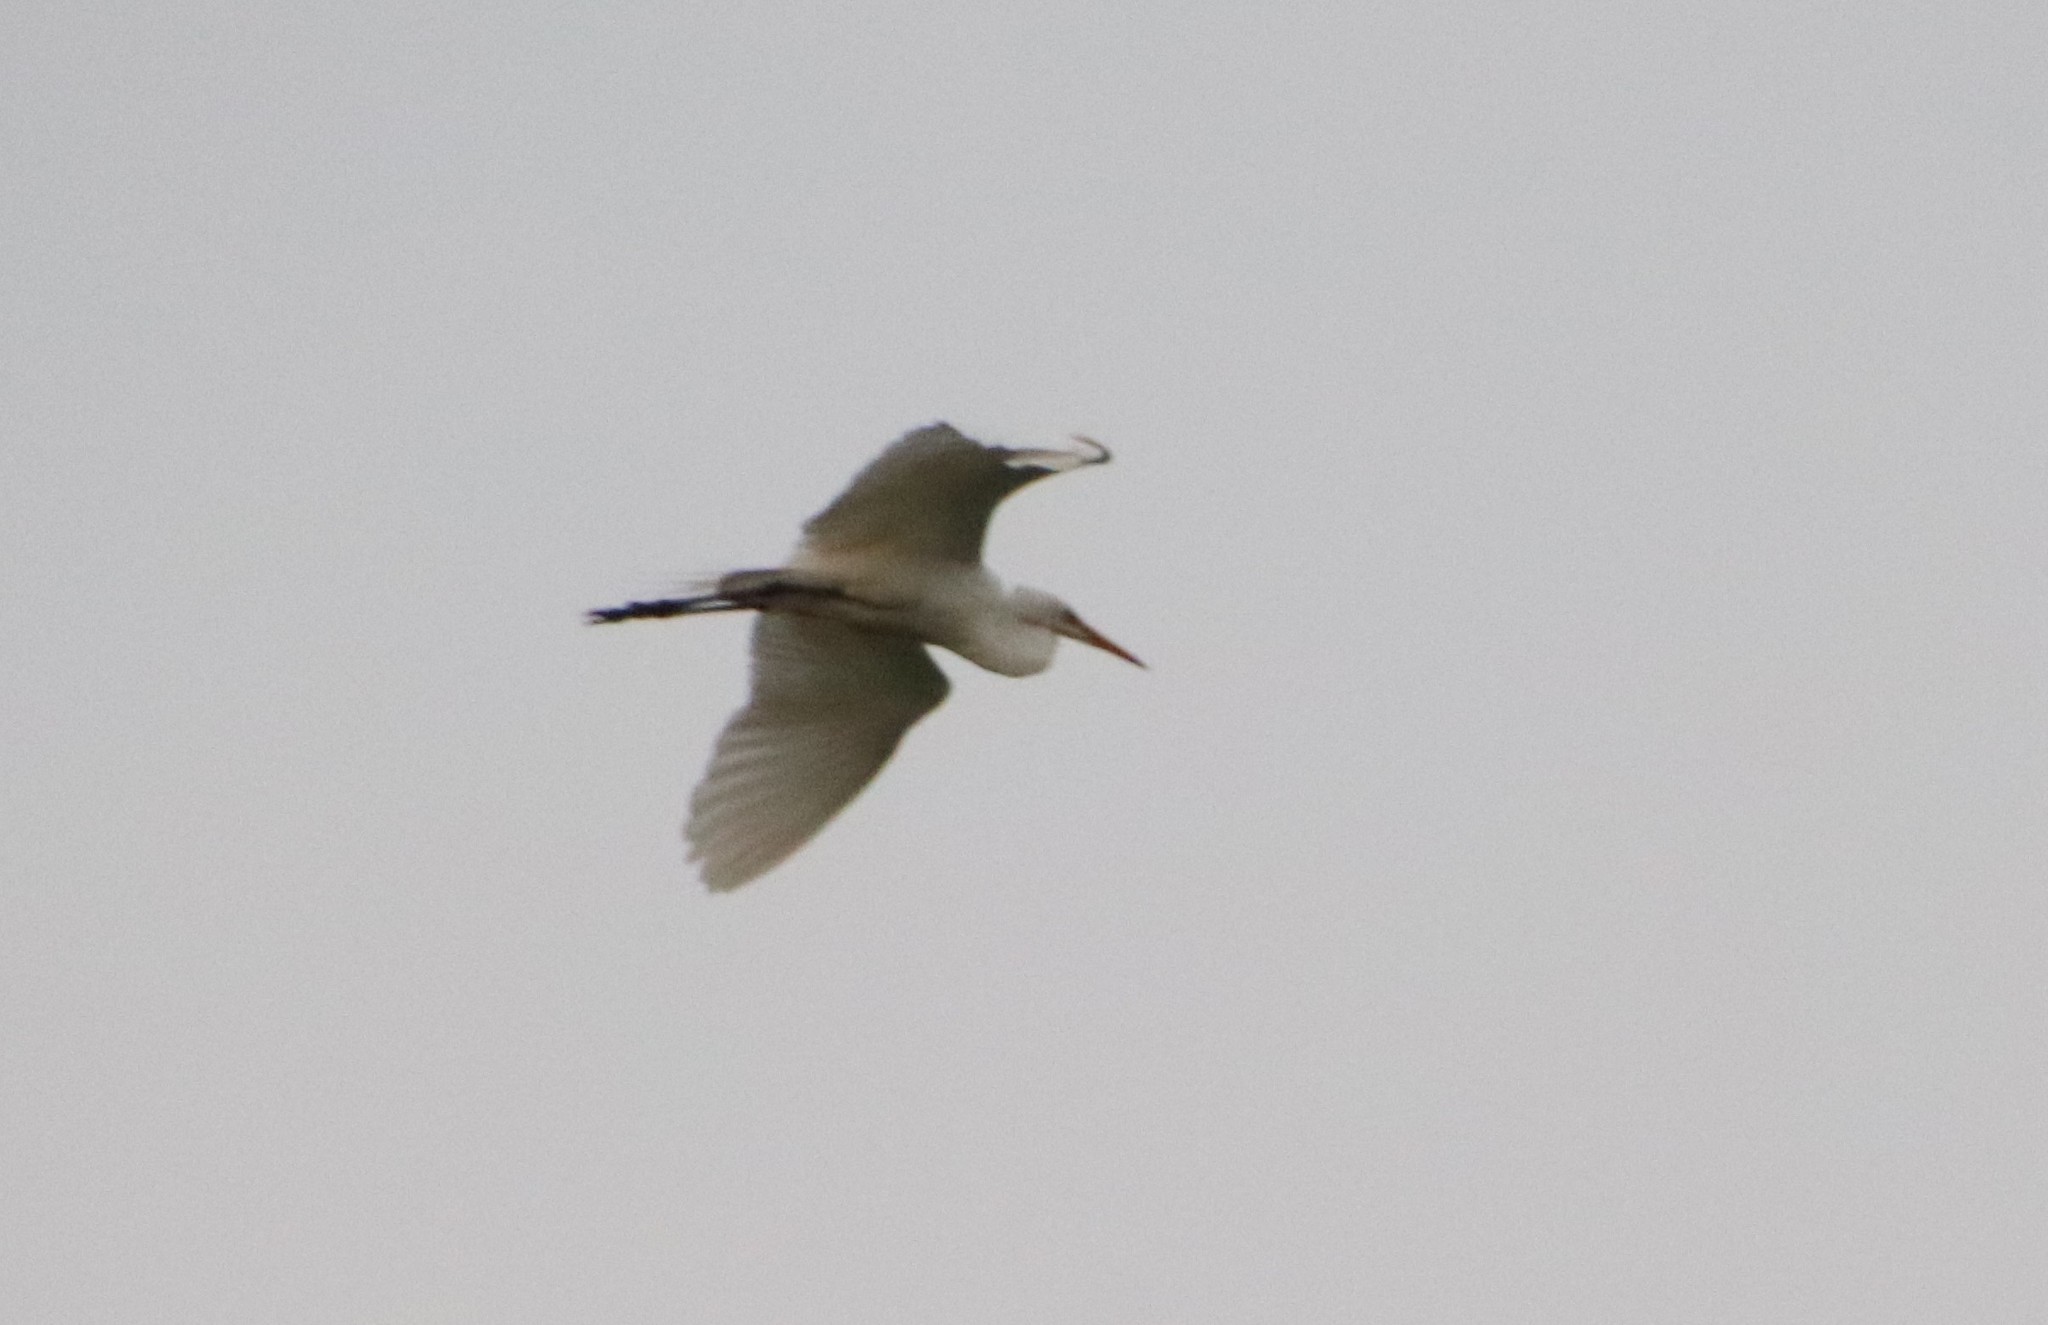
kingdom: Animalia
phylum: Chordata
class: Aves
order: Pelecaniformes
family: Ardeidae
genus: Ardea
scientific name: Ardea alba
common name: Great egret
